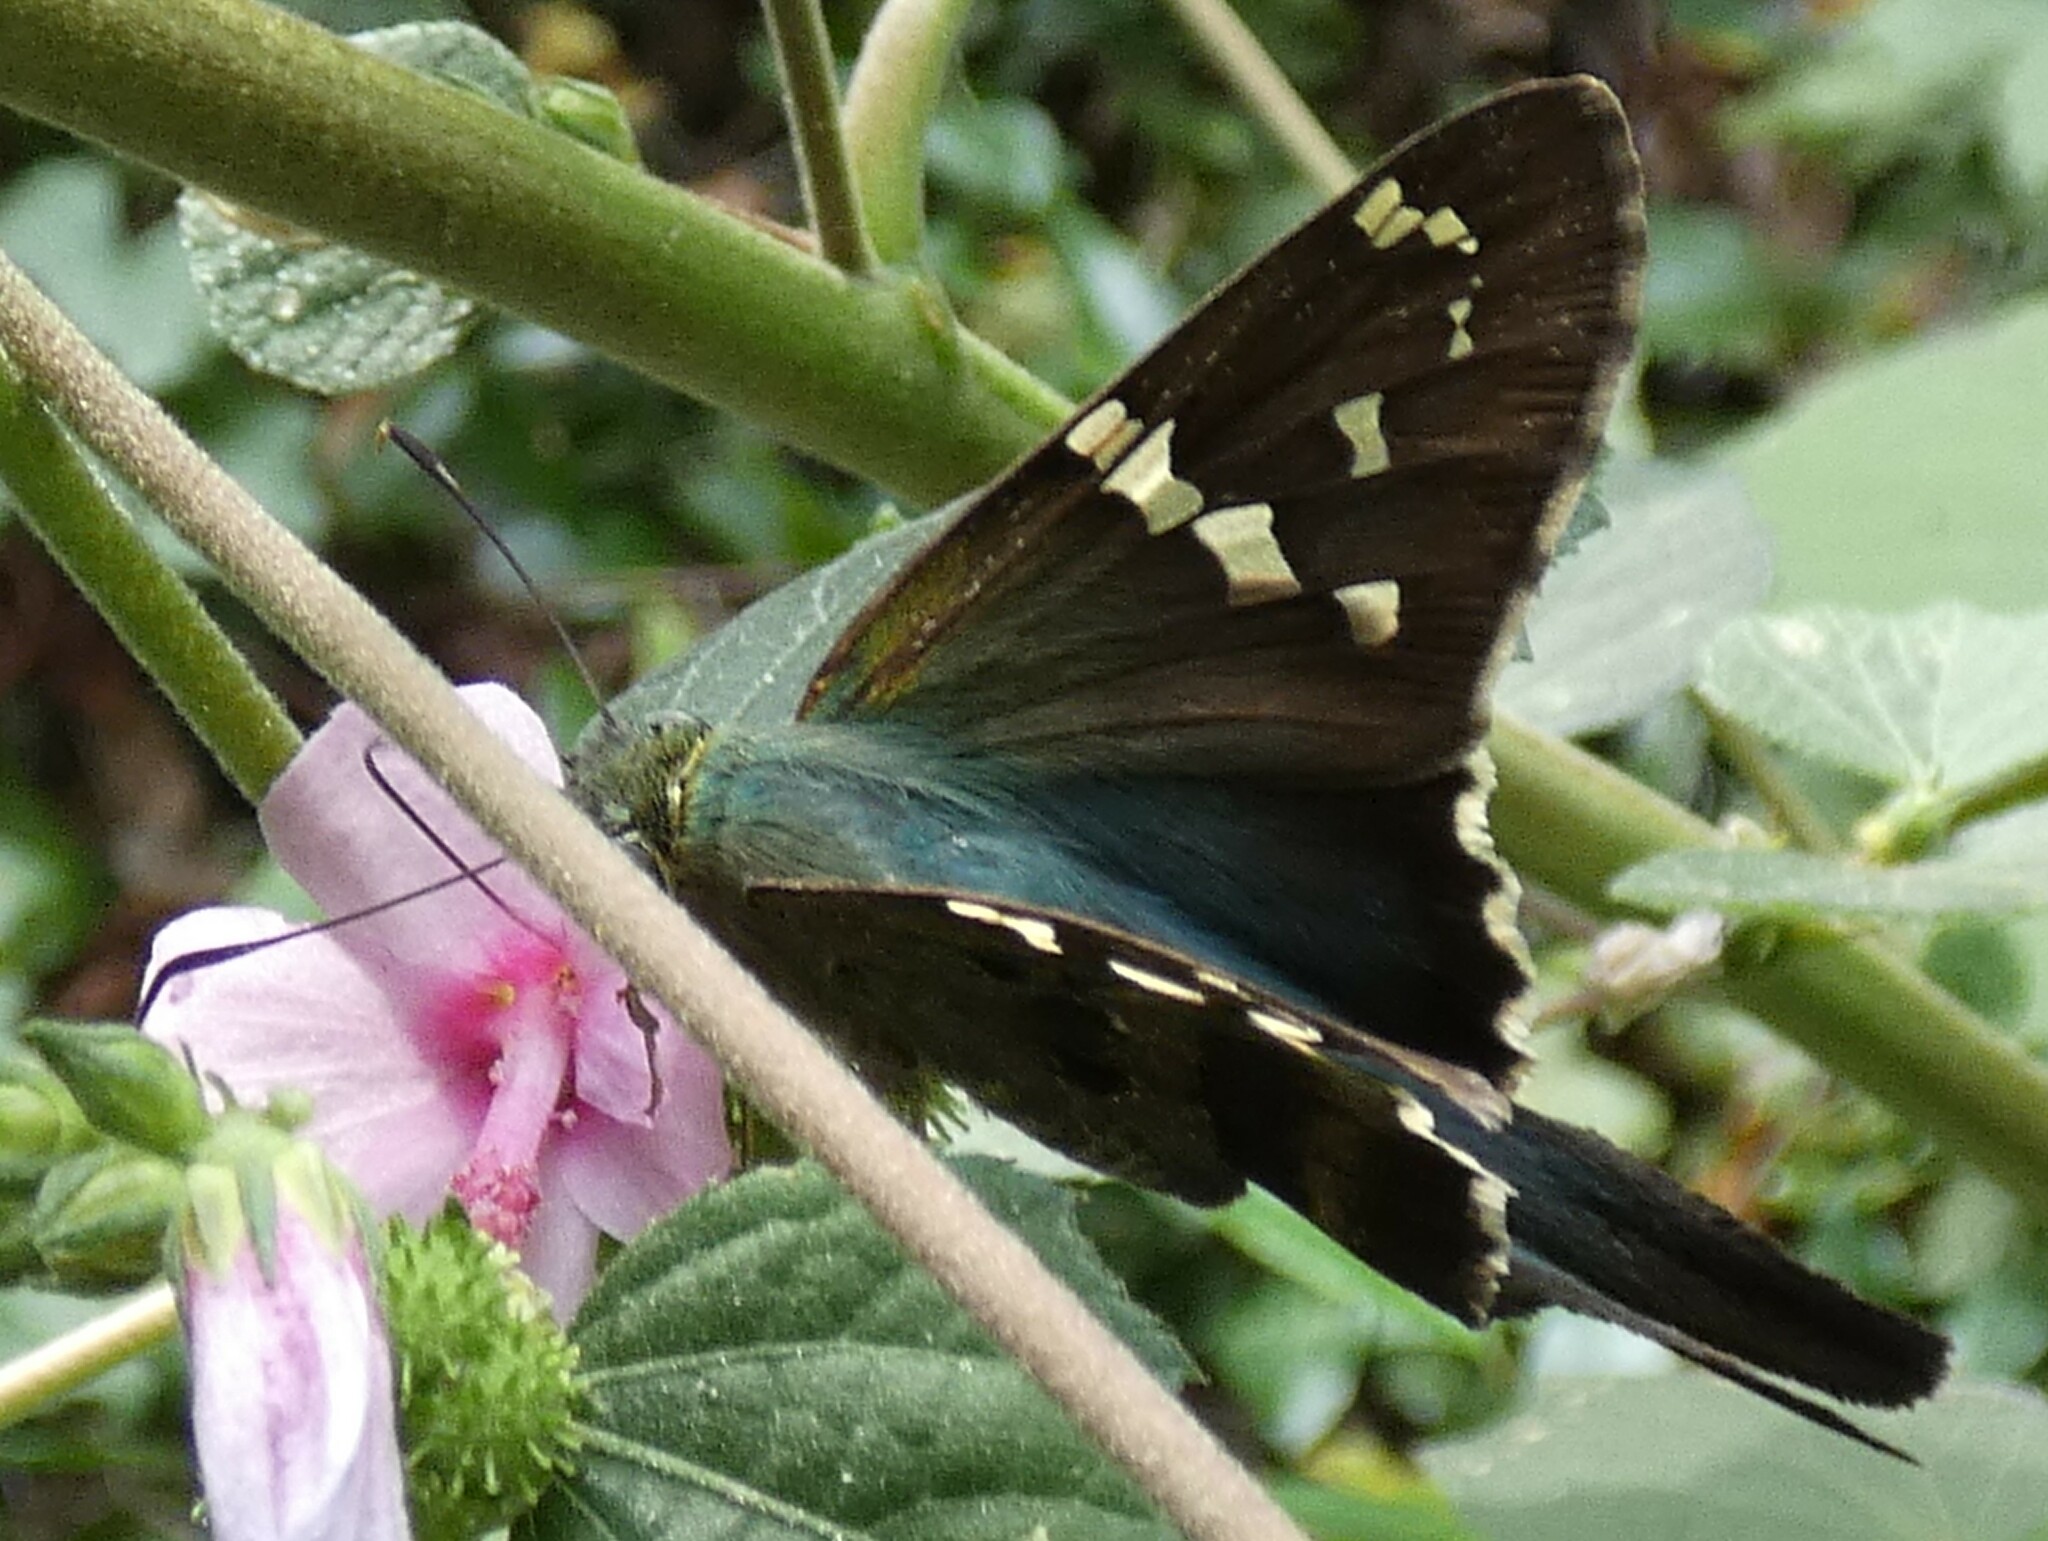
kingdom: Animalia
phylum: Arthropoda
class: Insecta
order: Lepidoptera
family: Hesperiidae
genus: Urbanus
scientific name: Urbanus proteus
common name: Long-tailed skipper
